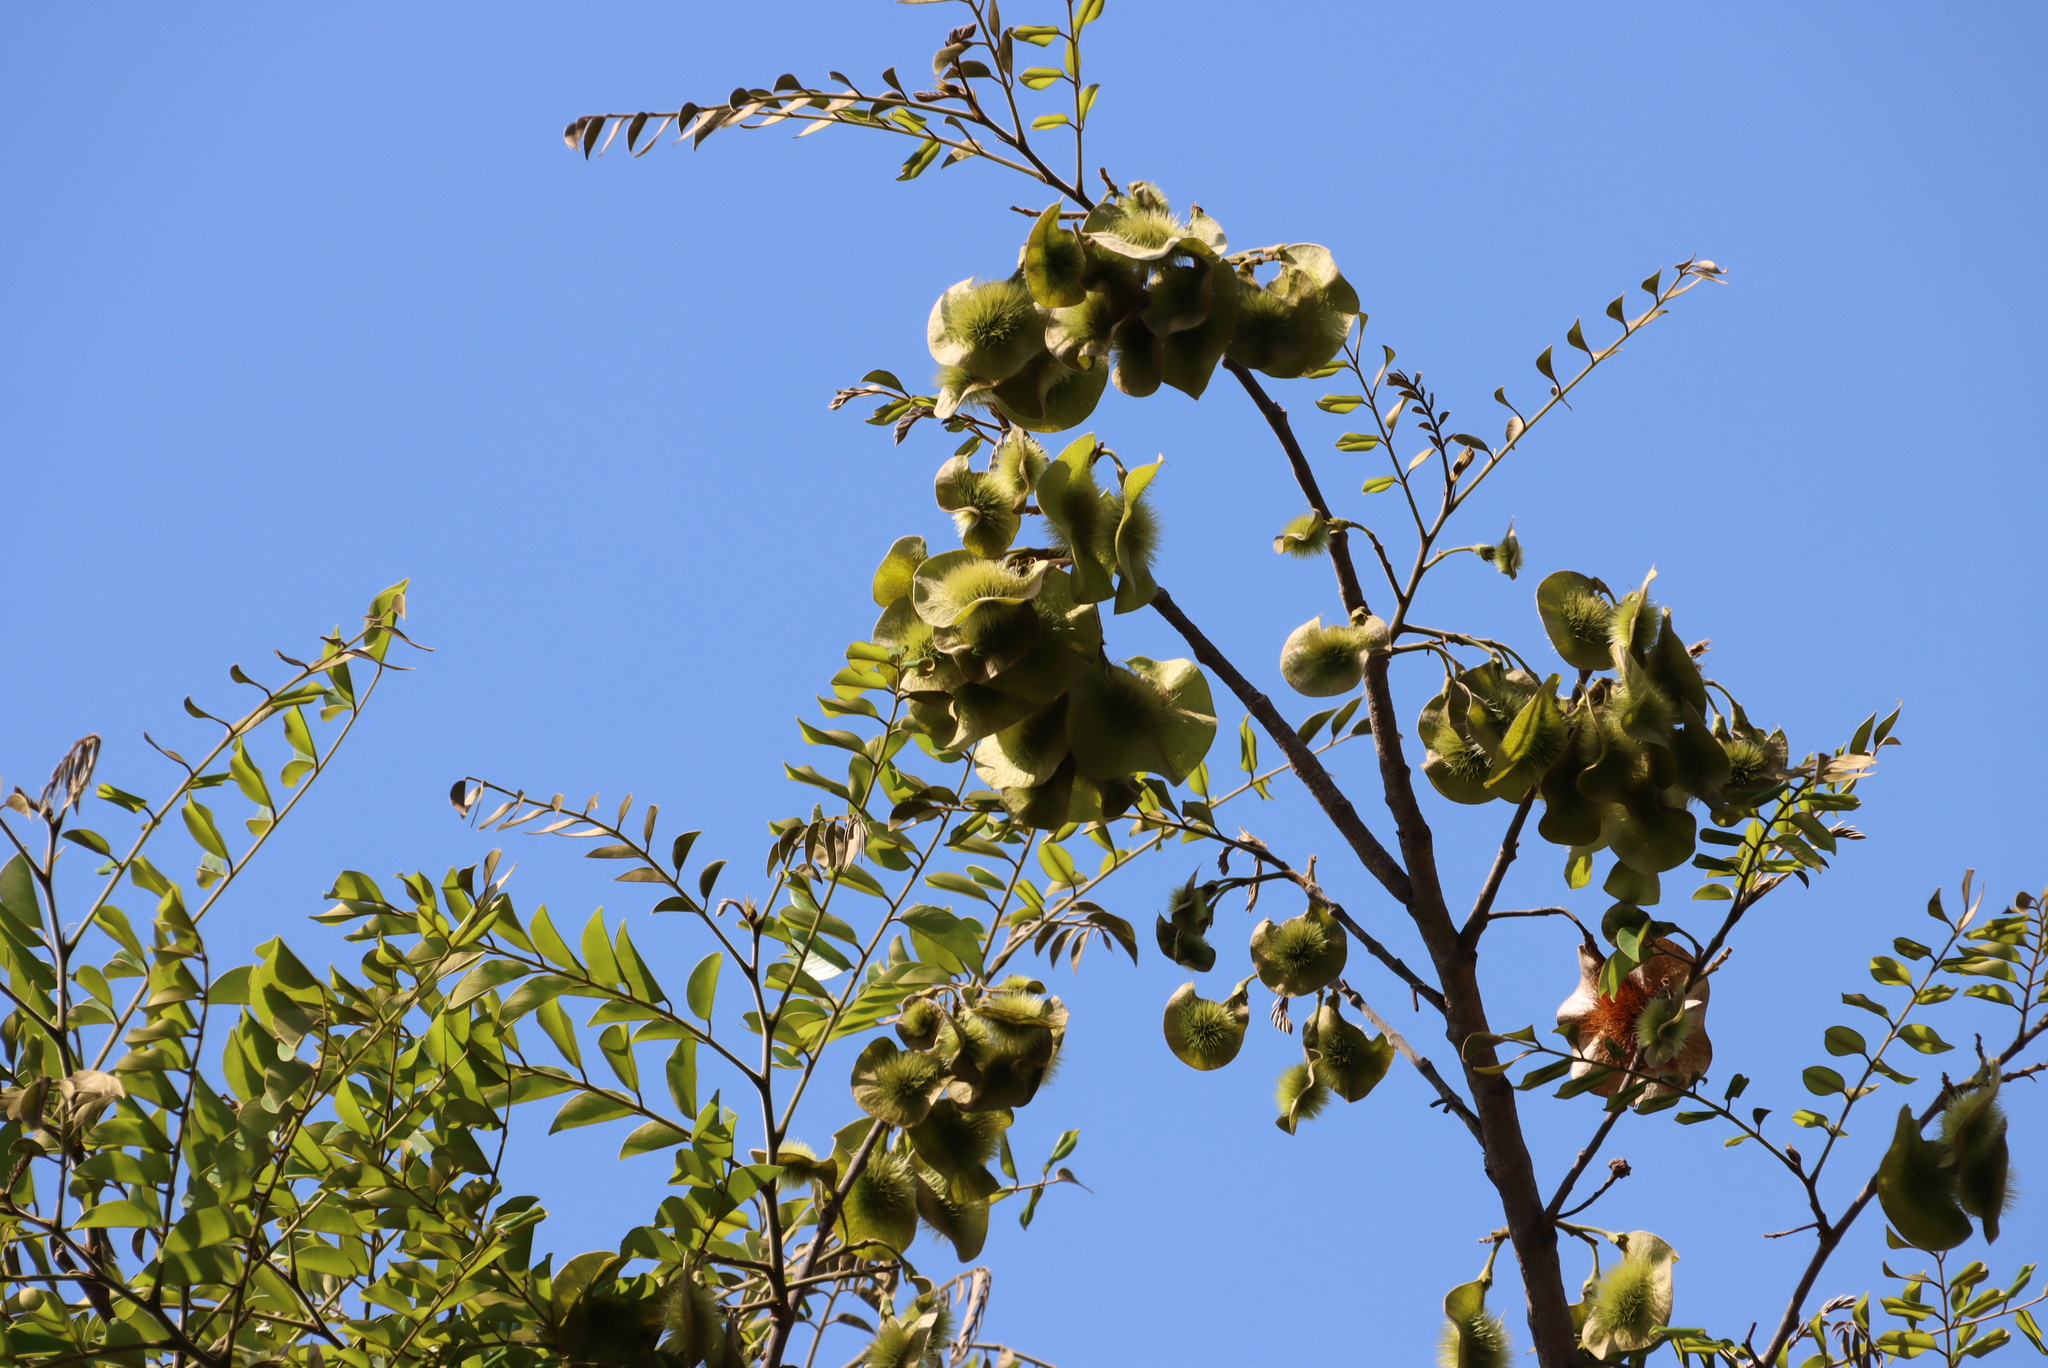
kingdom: Plantae
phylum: Tracheophyta
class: Magnoliopsida
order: Fabales
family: Fabaceae
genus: Pterocarpus
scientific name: Pterocarpus angolensis
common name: Bloodwood tree
